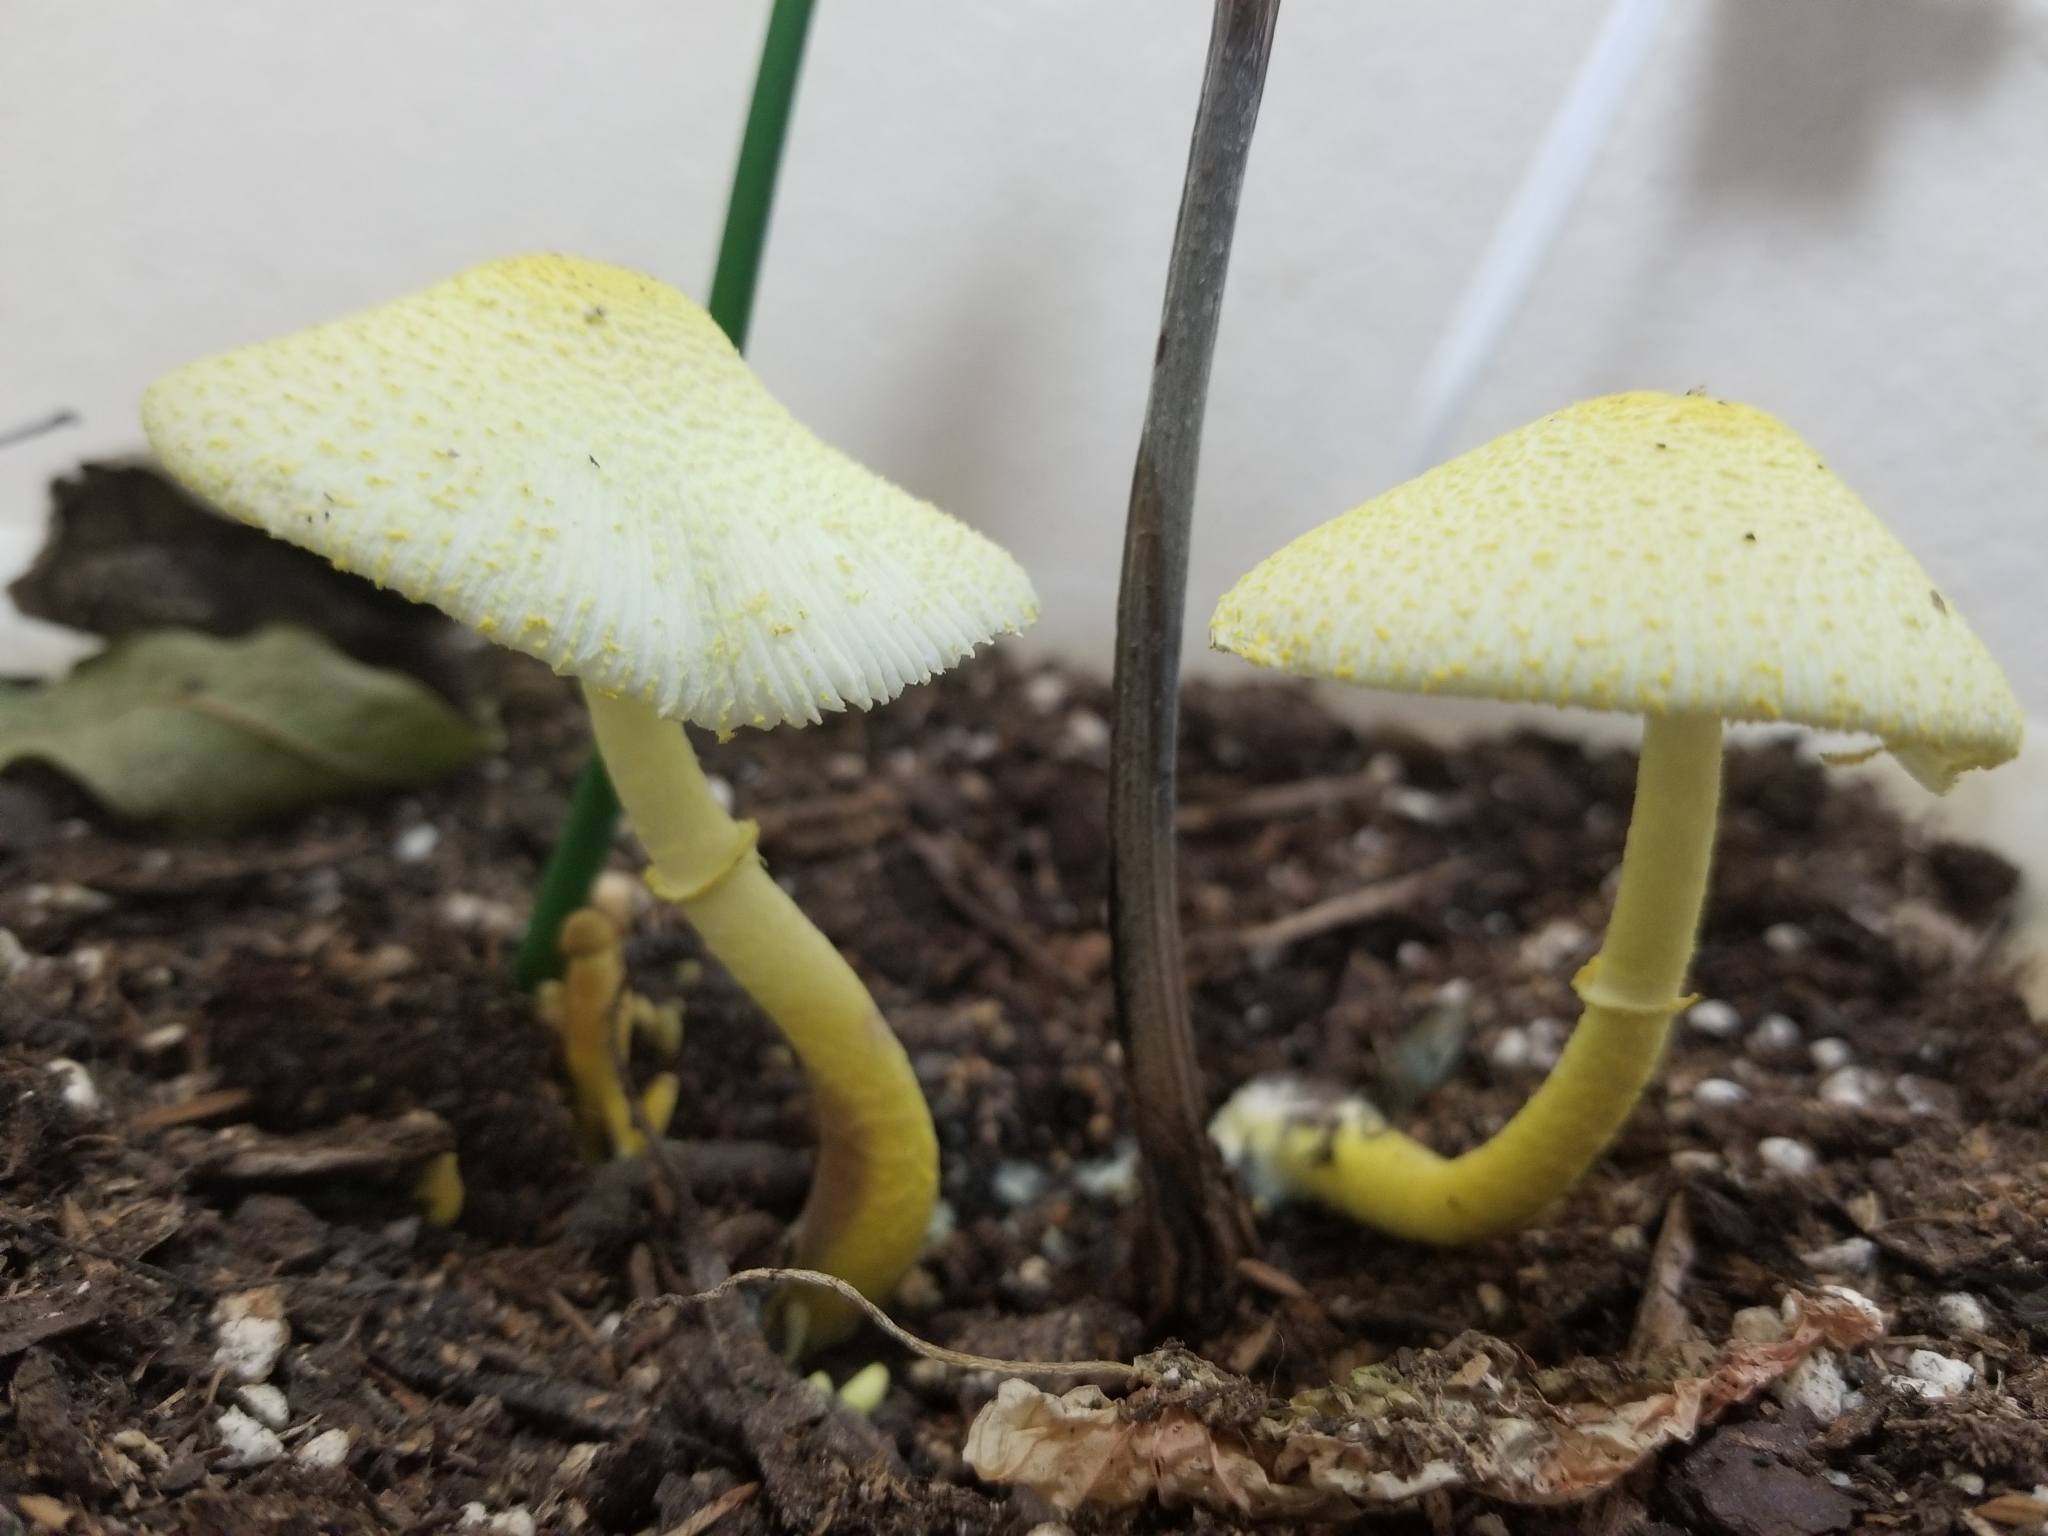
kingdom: Fungi
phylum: Basidiomycota
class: Agaricomycetes
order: Agaricales
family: Agaricaceae
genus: Leucocoprinus
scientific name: Leucocoprinus birnbaumii
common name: Plantpot dapperling
